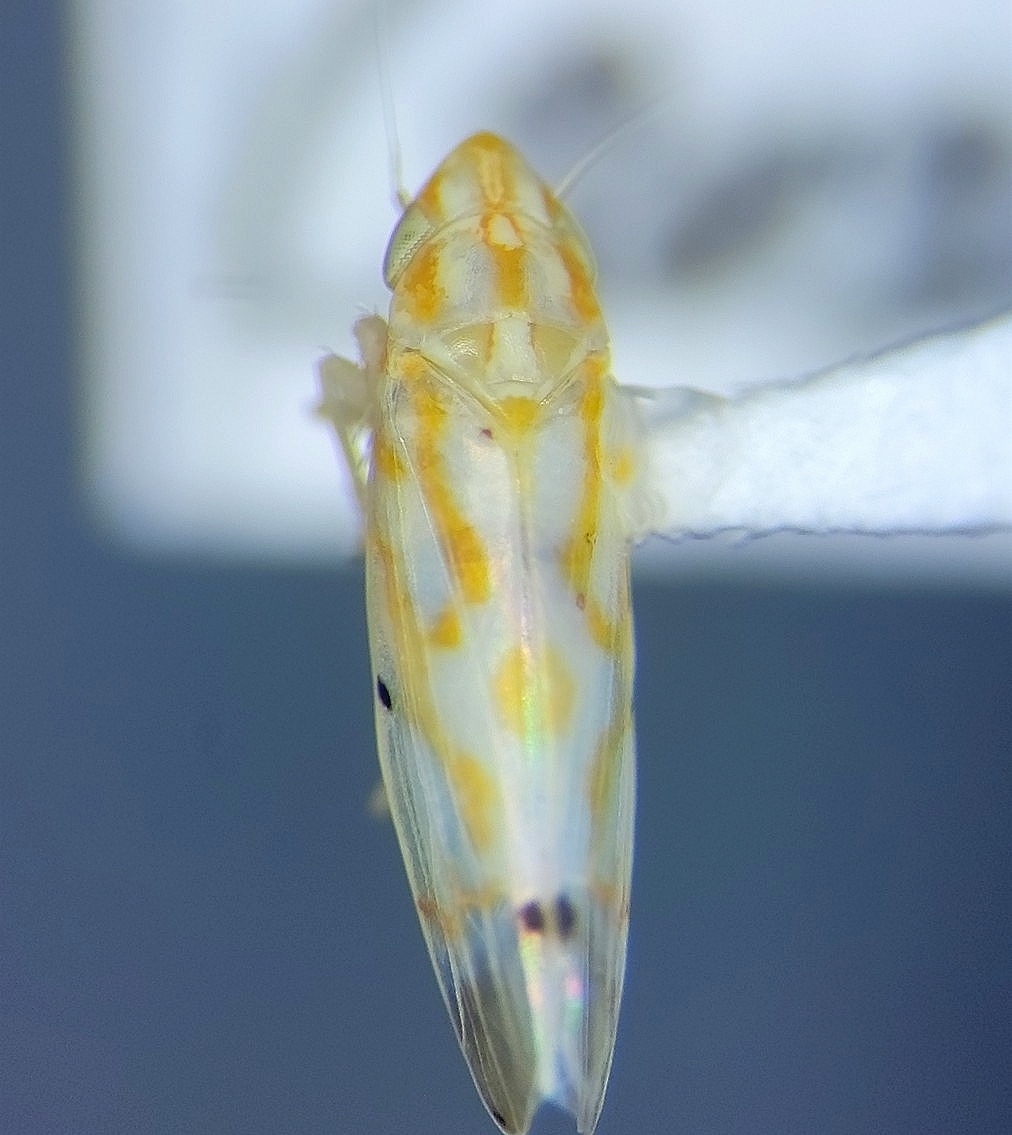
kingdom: Animalia
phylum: Arthropoda
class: Insecta
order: Hemiptera
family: Cicadellidae
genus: Erythroneura
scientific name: Erythroneura tacita
